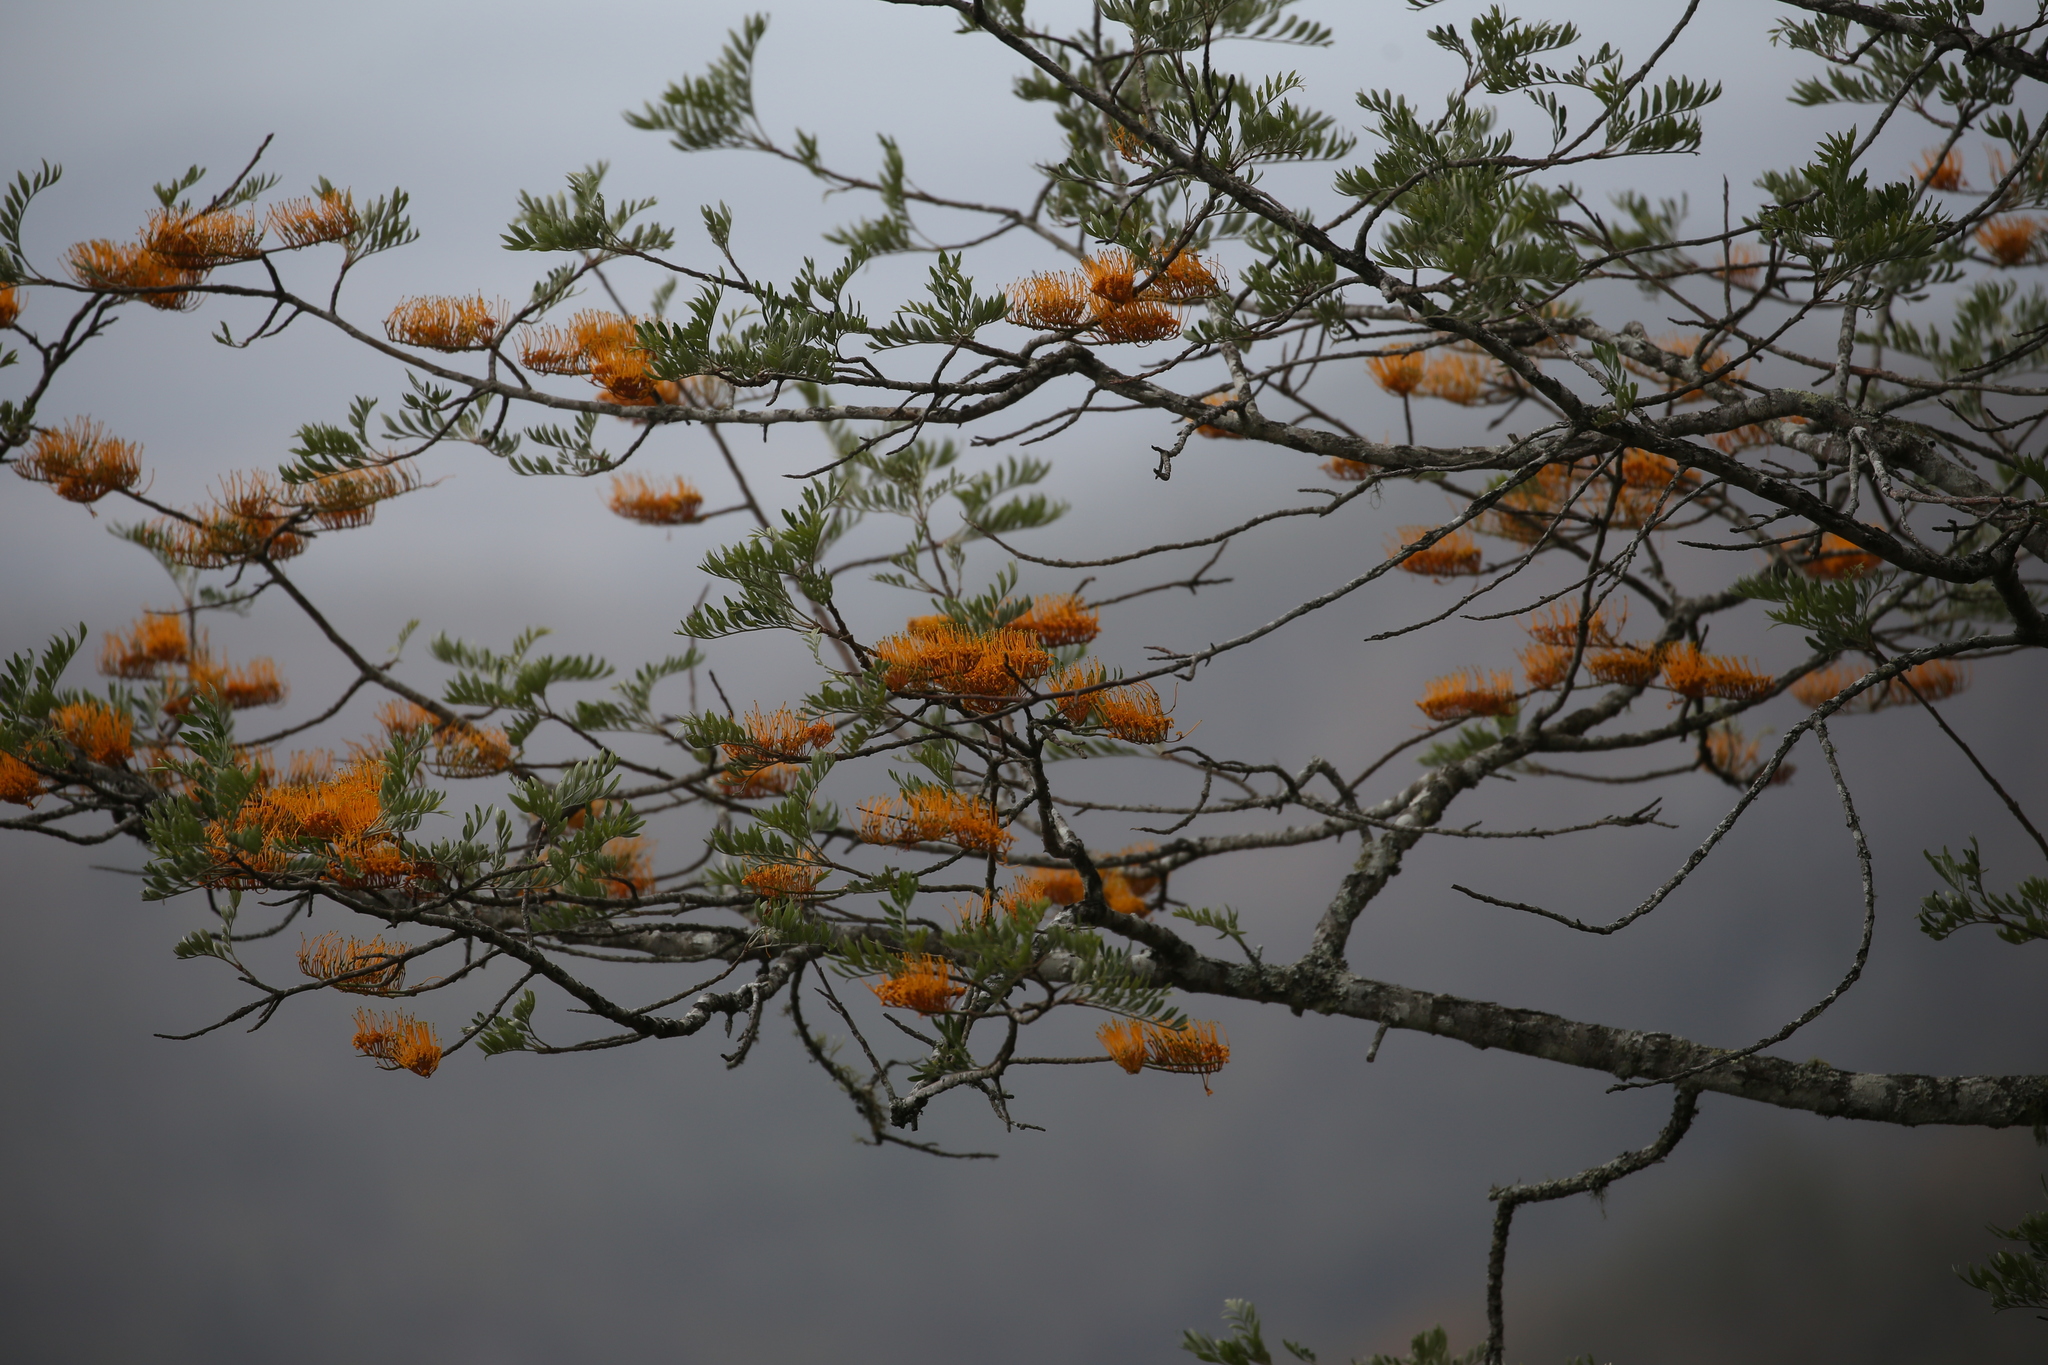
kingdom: Plantae
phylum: Tracheophyta
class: Magnoliopsida
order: Proteales
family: Proteaceae
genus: Grevillea
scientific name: Grevillea robusta
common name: Silkoak
